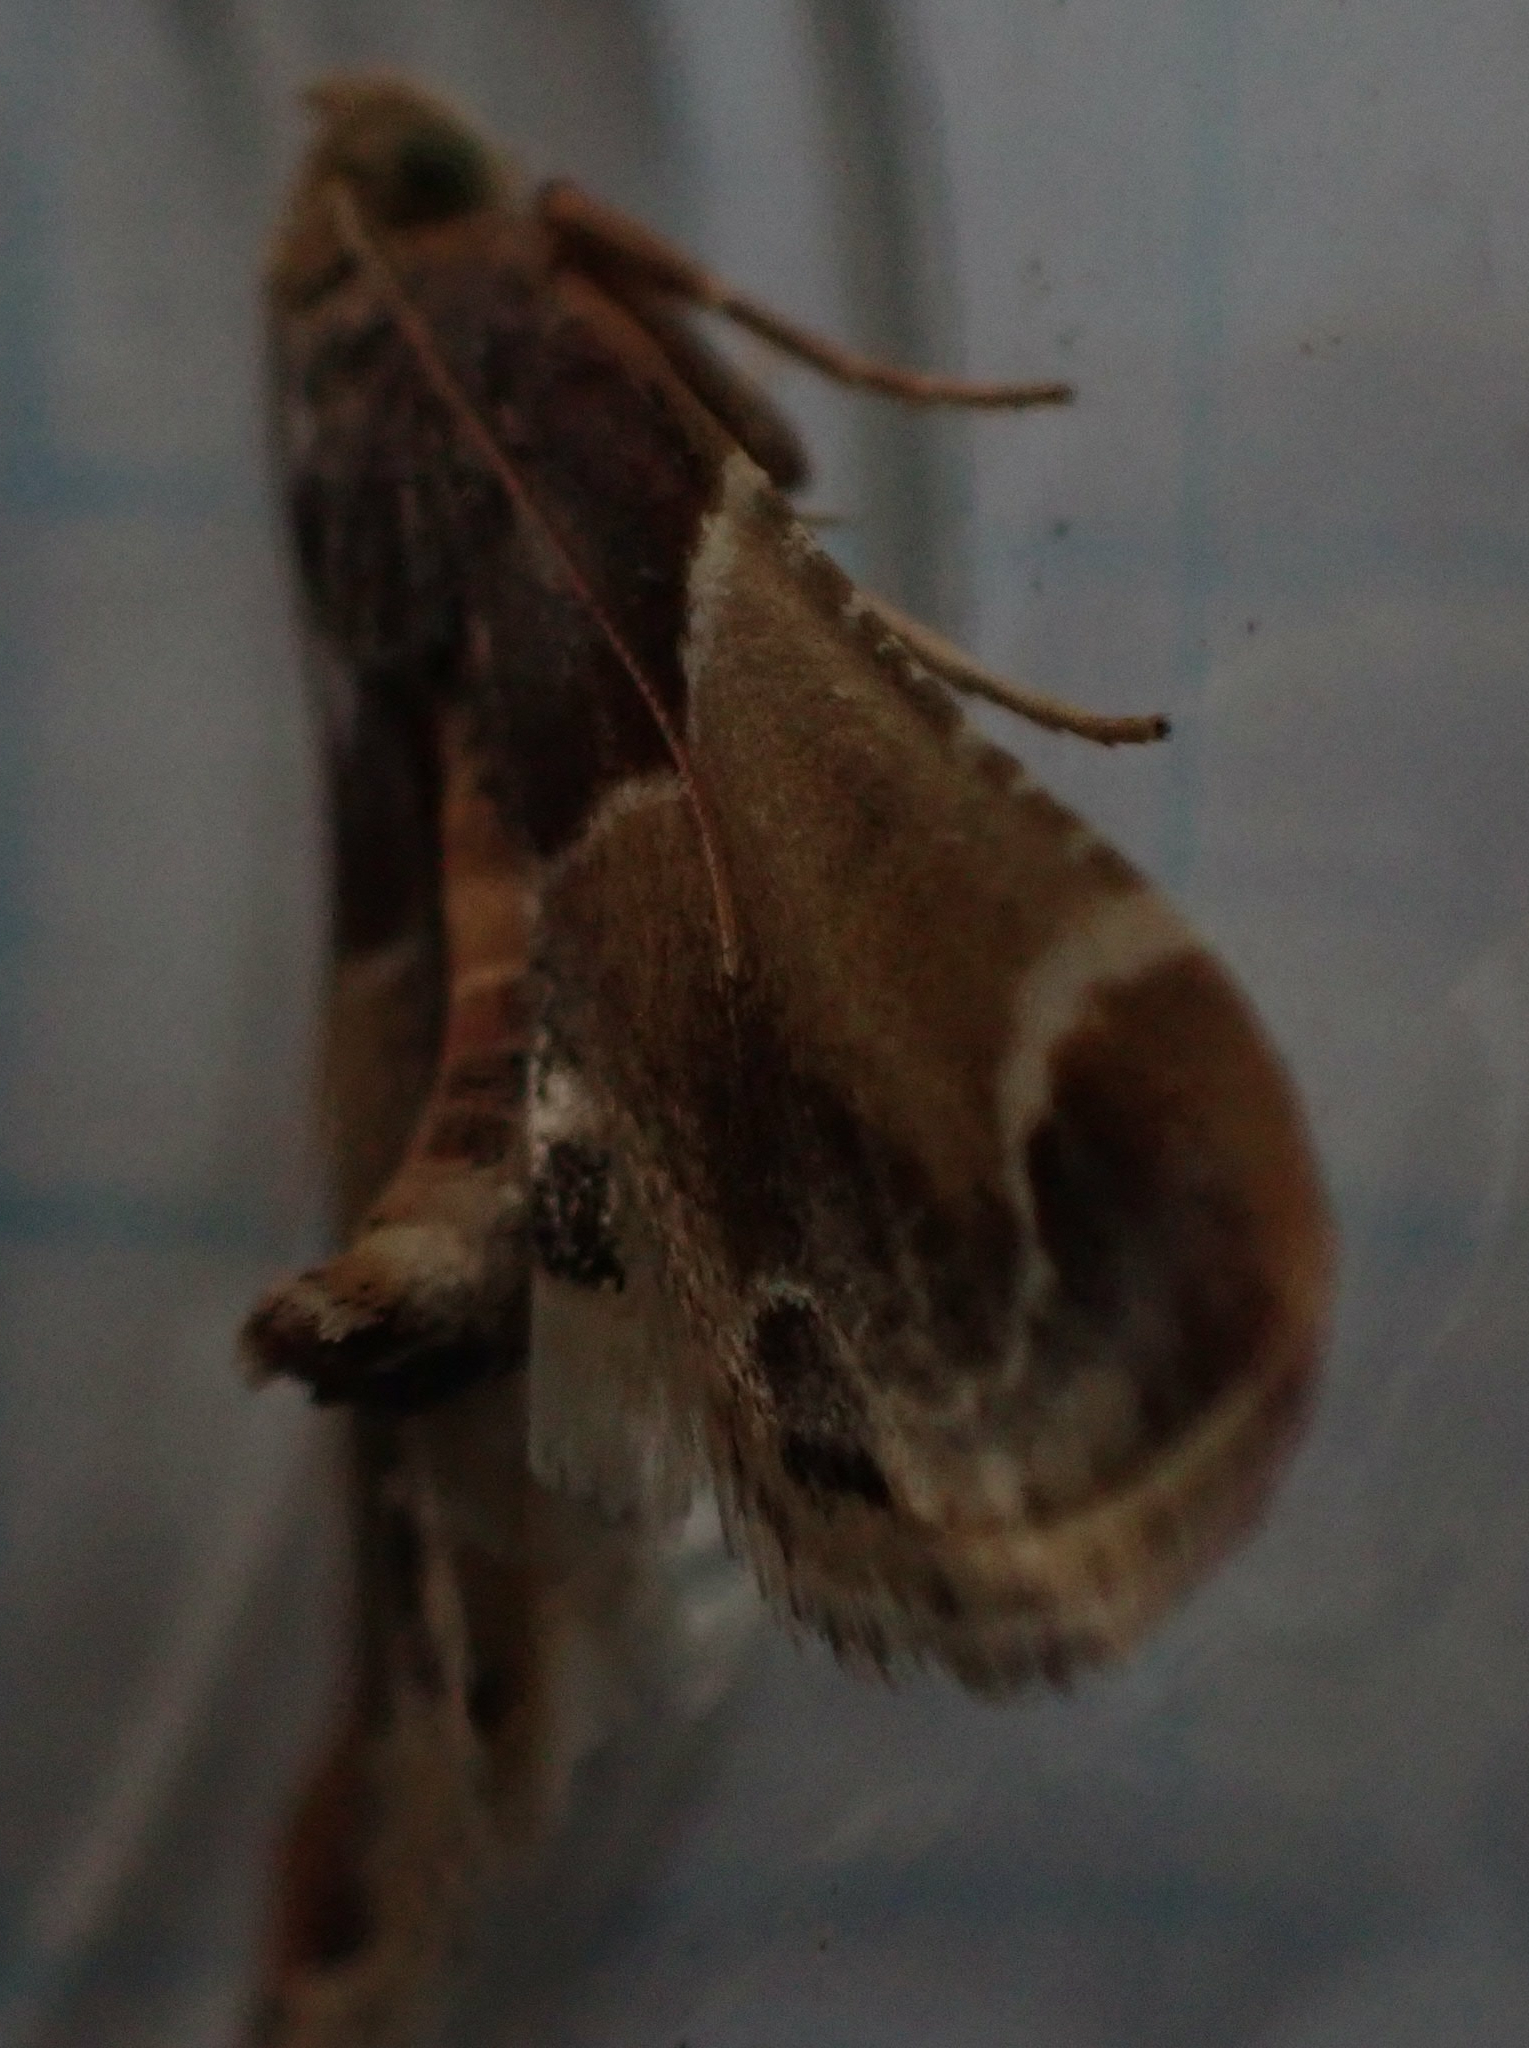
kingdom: Animalia
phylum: Arthropoda
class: Insecta
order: Lepidoptera
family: Pyralidae
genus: Pyralis
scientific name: Pyralis farinalis
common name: Meal moth
